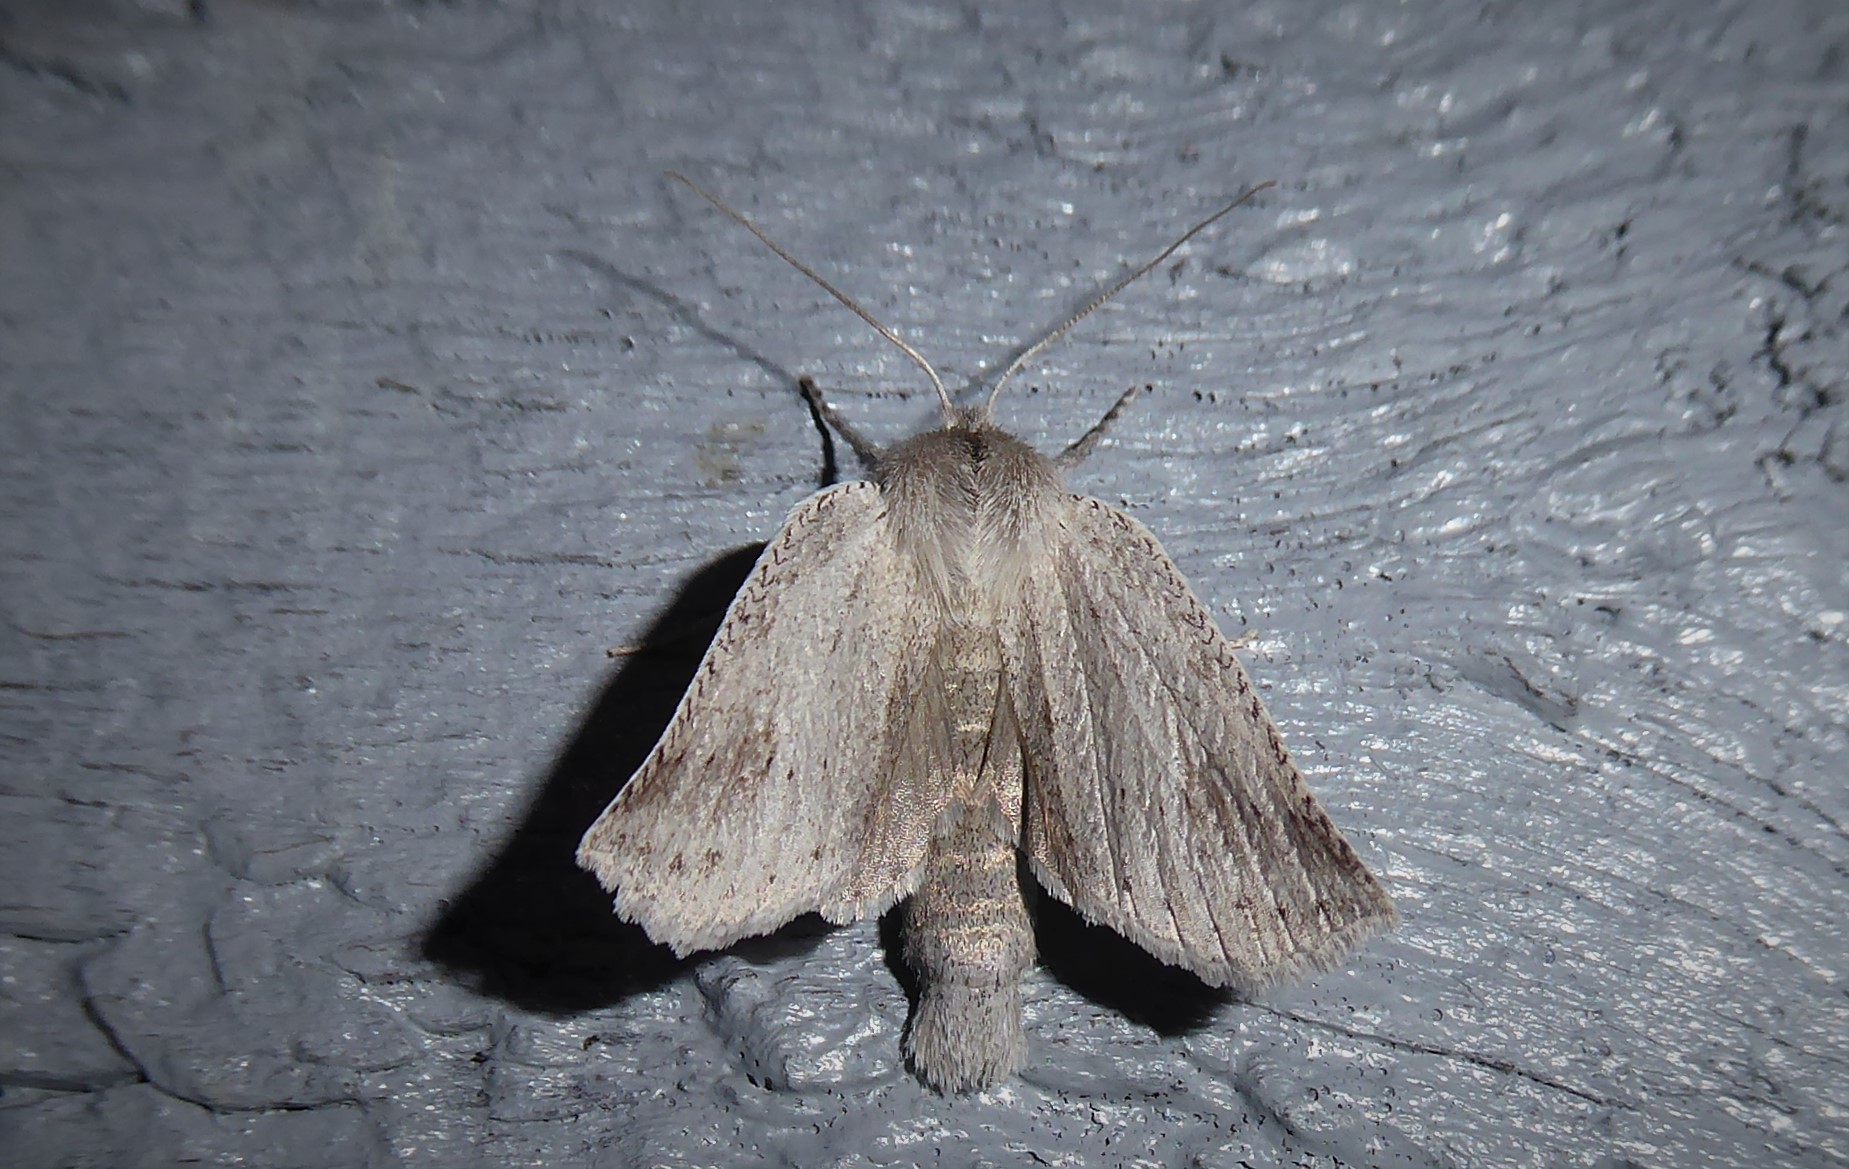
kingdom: Animalia
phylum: Arthropoda
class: Insecta
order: Lepidoptera
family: Geometridae
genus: Declana
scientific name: Declana leptomera
